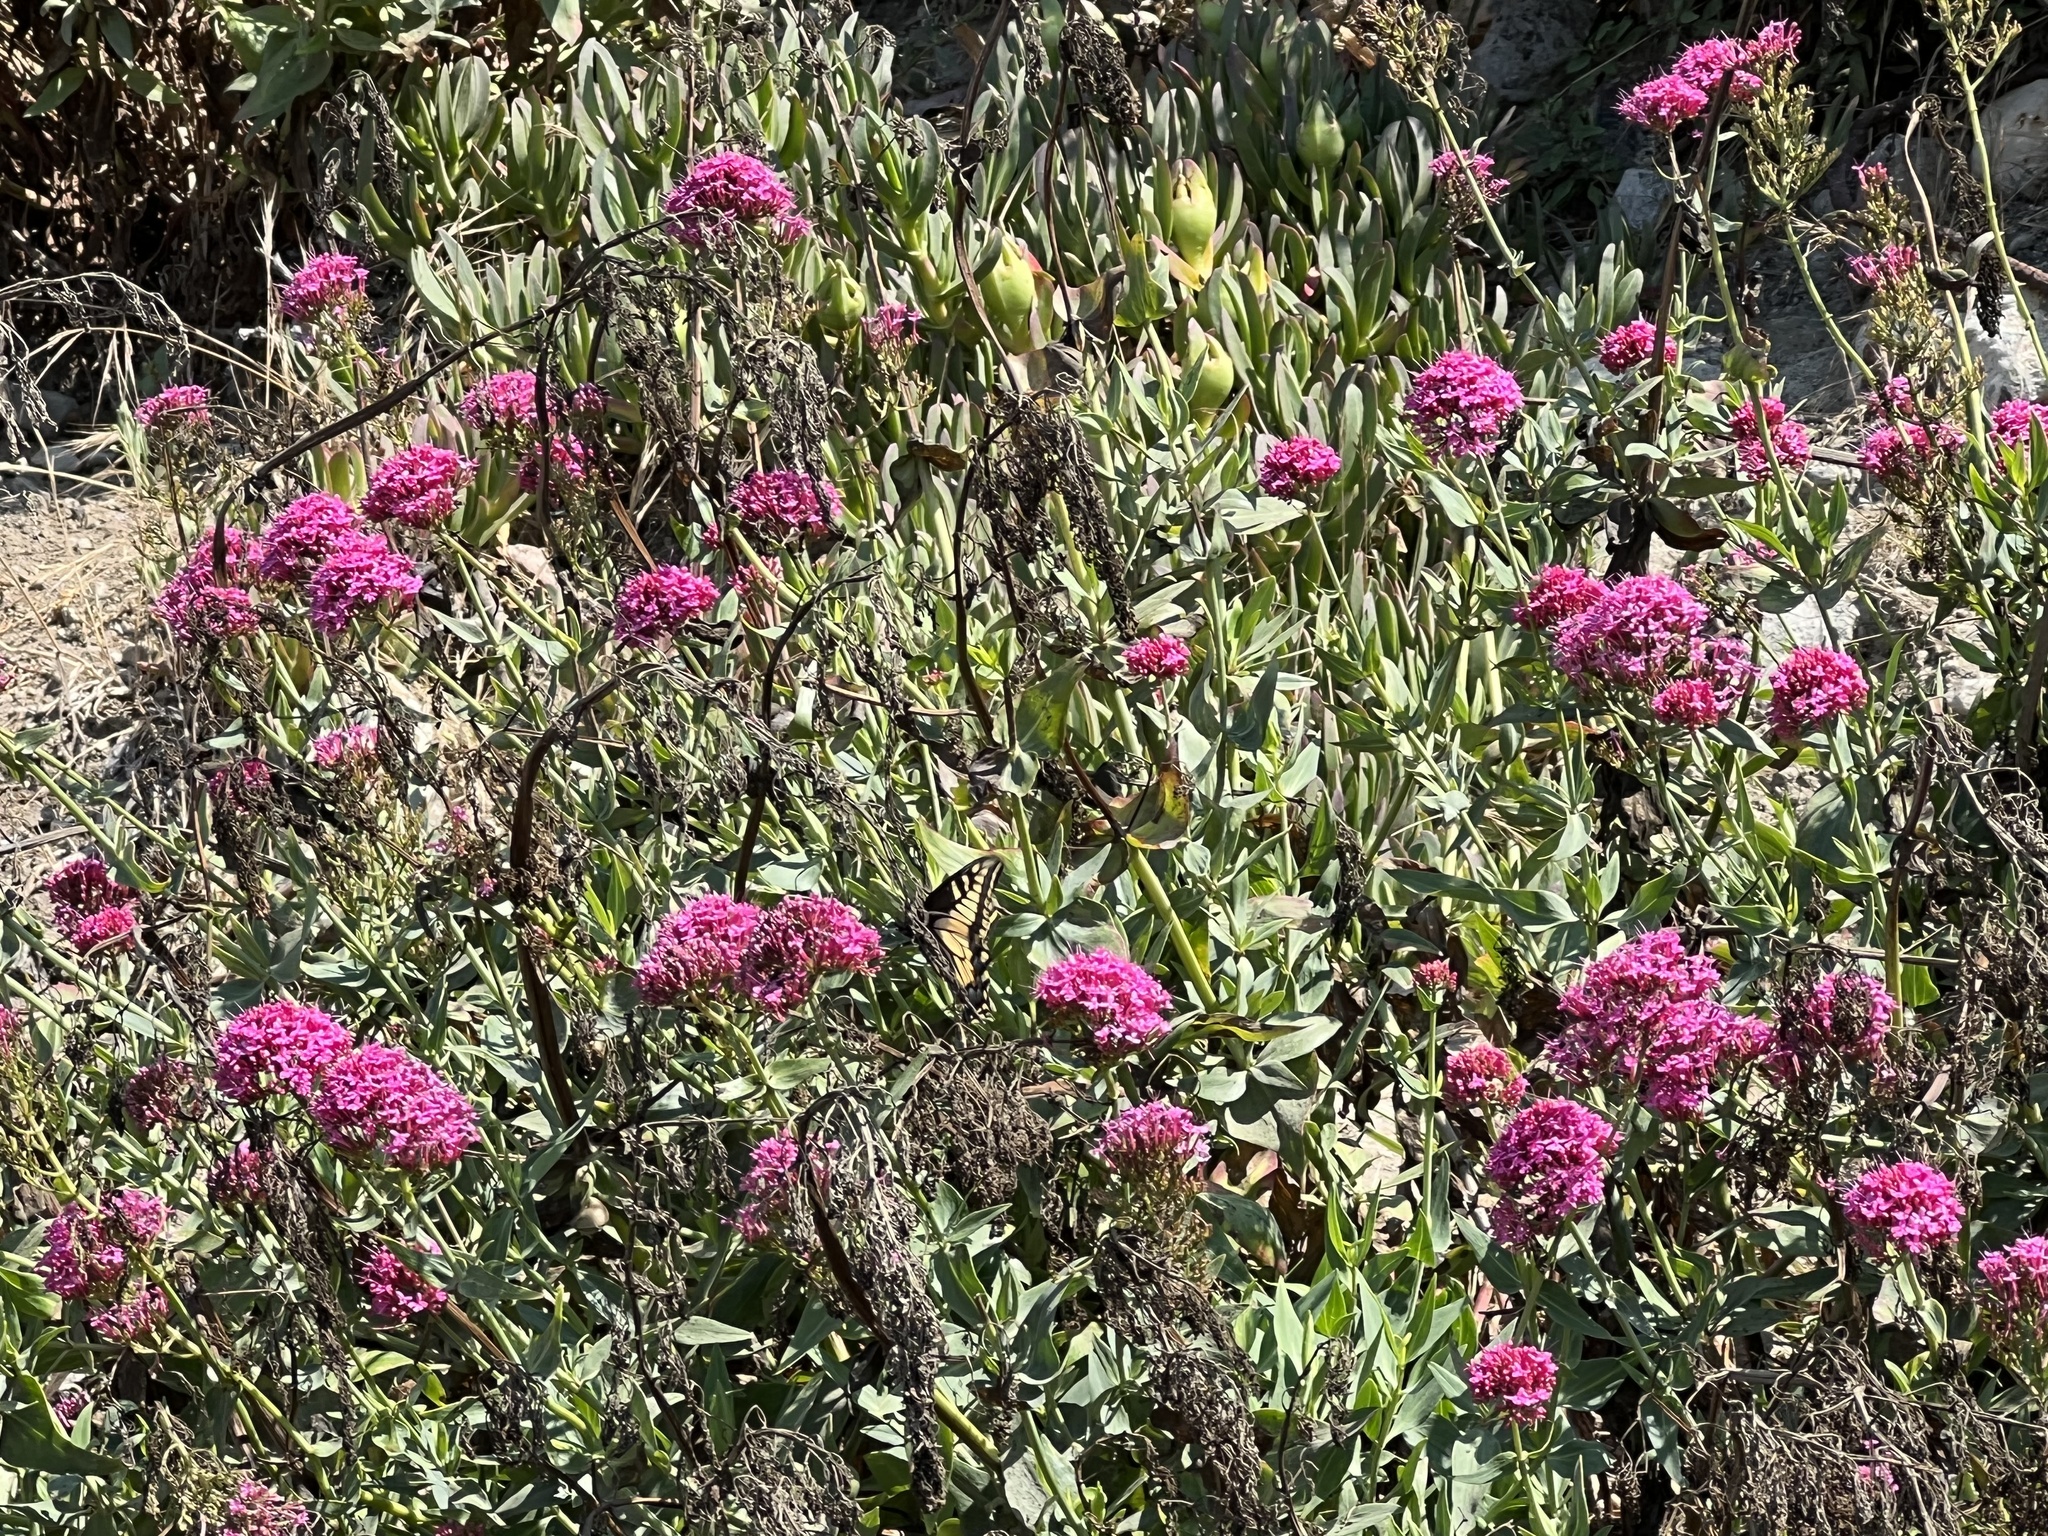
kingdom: Animalia
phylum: Arthropoda
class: Insecta
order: Lepidoptera
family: Papilionidae
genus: Papilio
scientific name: Papilio zelicaon
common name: Anise swallowtail
